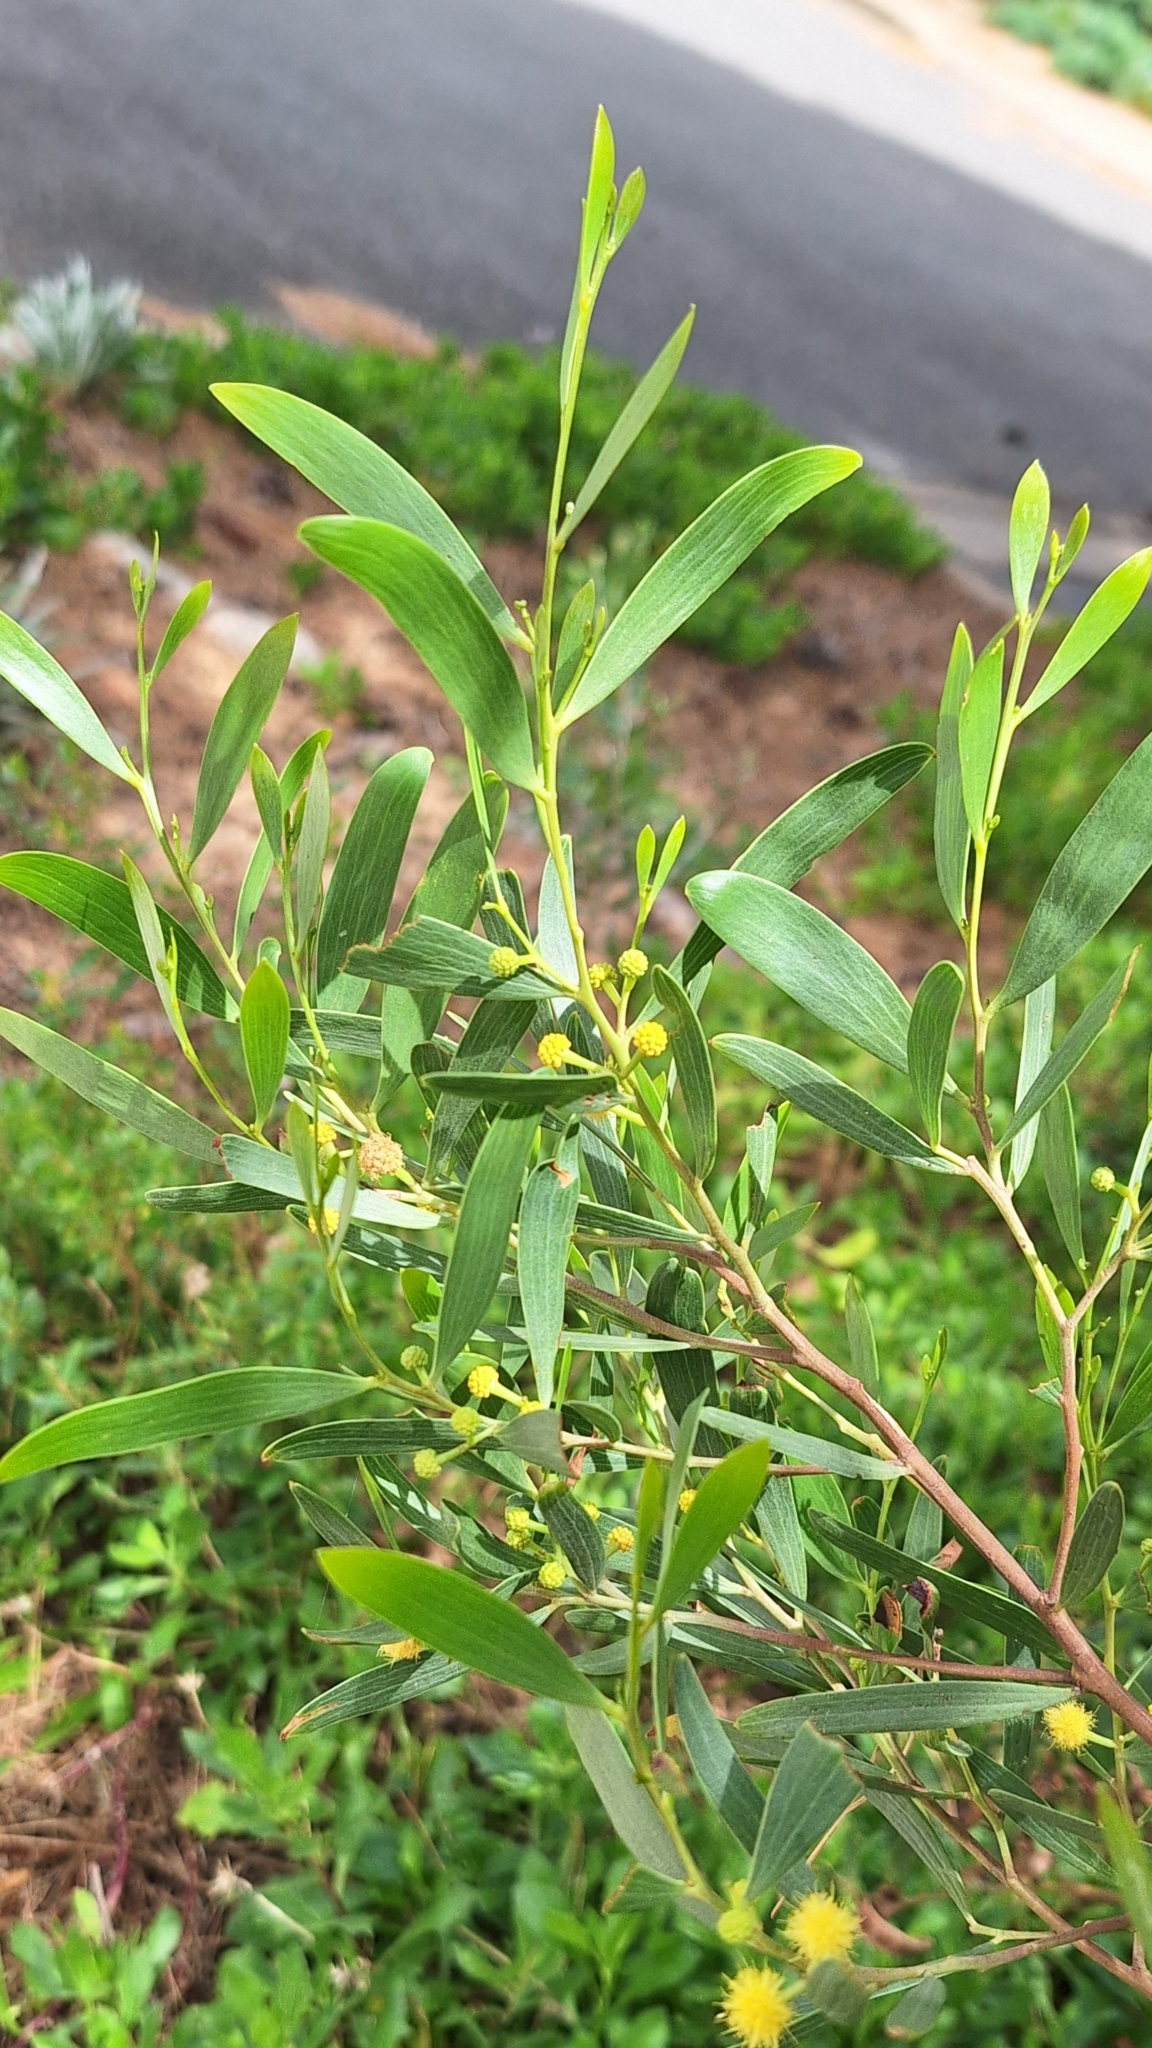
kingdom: Plantae
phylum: Tracheophyta
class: Magnoliopsida
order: Fabales
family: Fabaceae
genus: Acacia
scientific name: Acacia cyclops
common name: Coastal wattle
